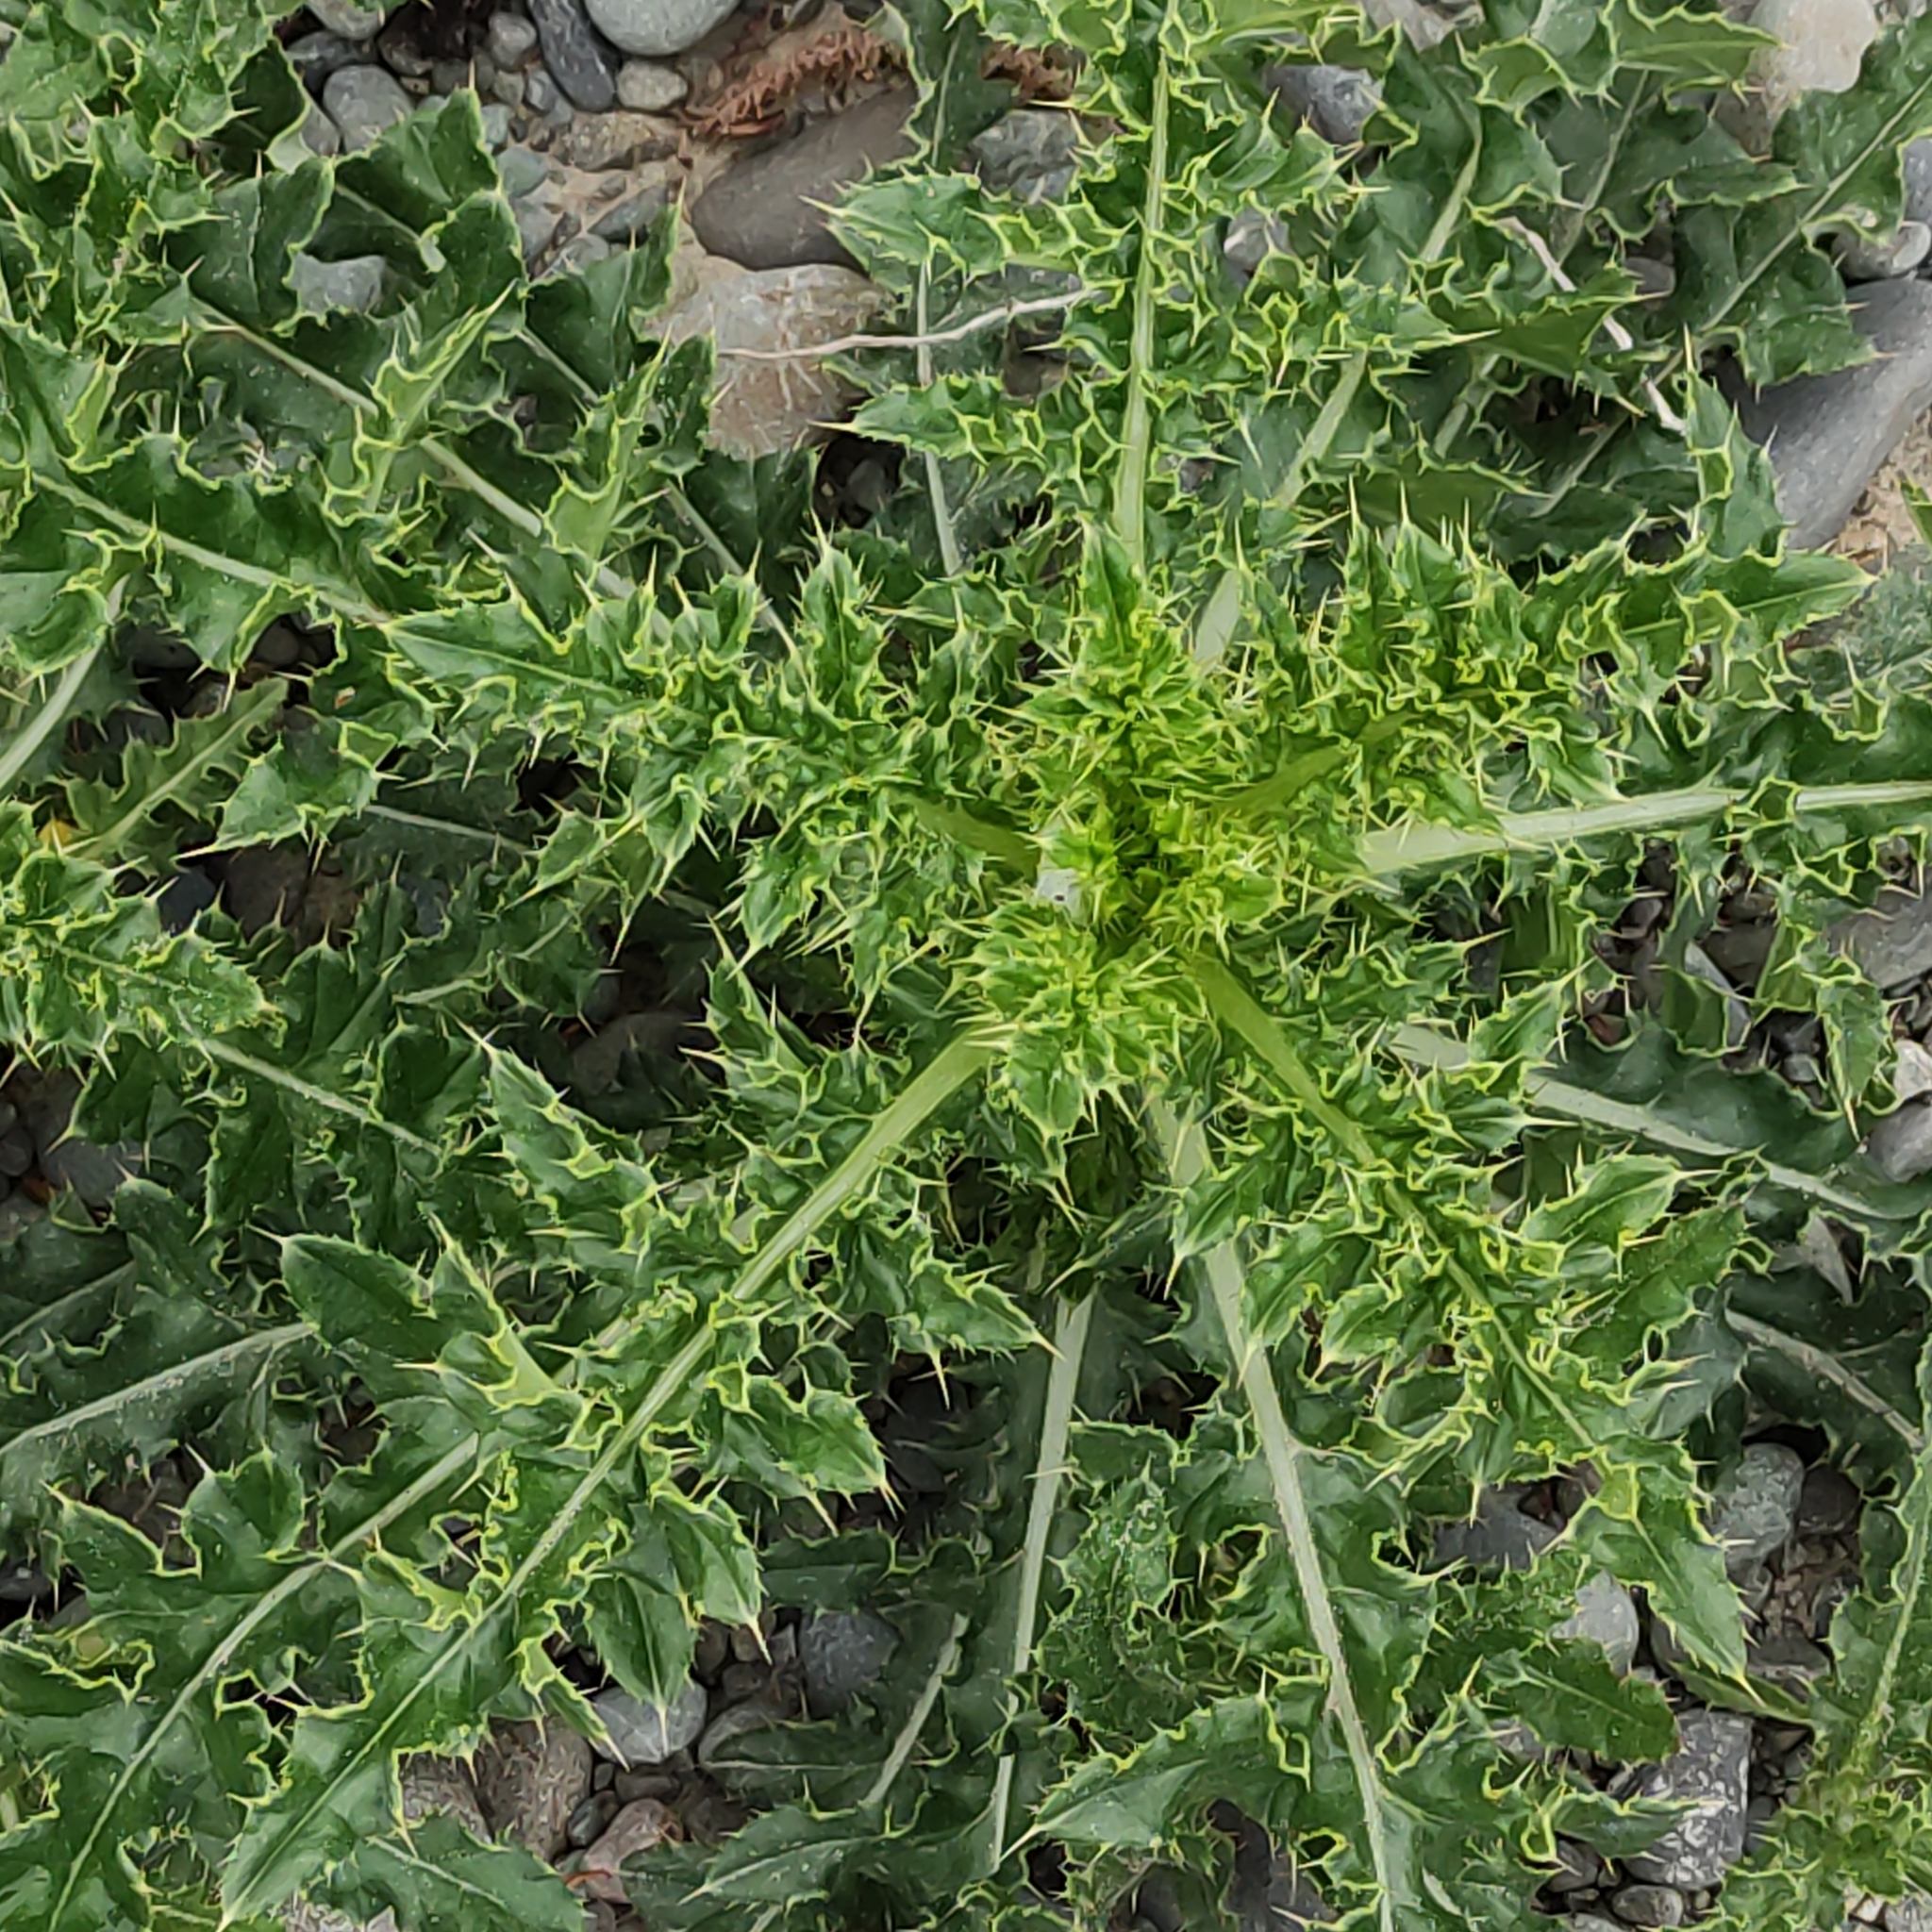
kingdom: Plantae
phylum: Tracheophyta
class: Magnoliopsida
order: Asterales
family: Asteraceae
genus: Cirsium
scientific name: Cirsium arvense
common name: Creeping thistle
